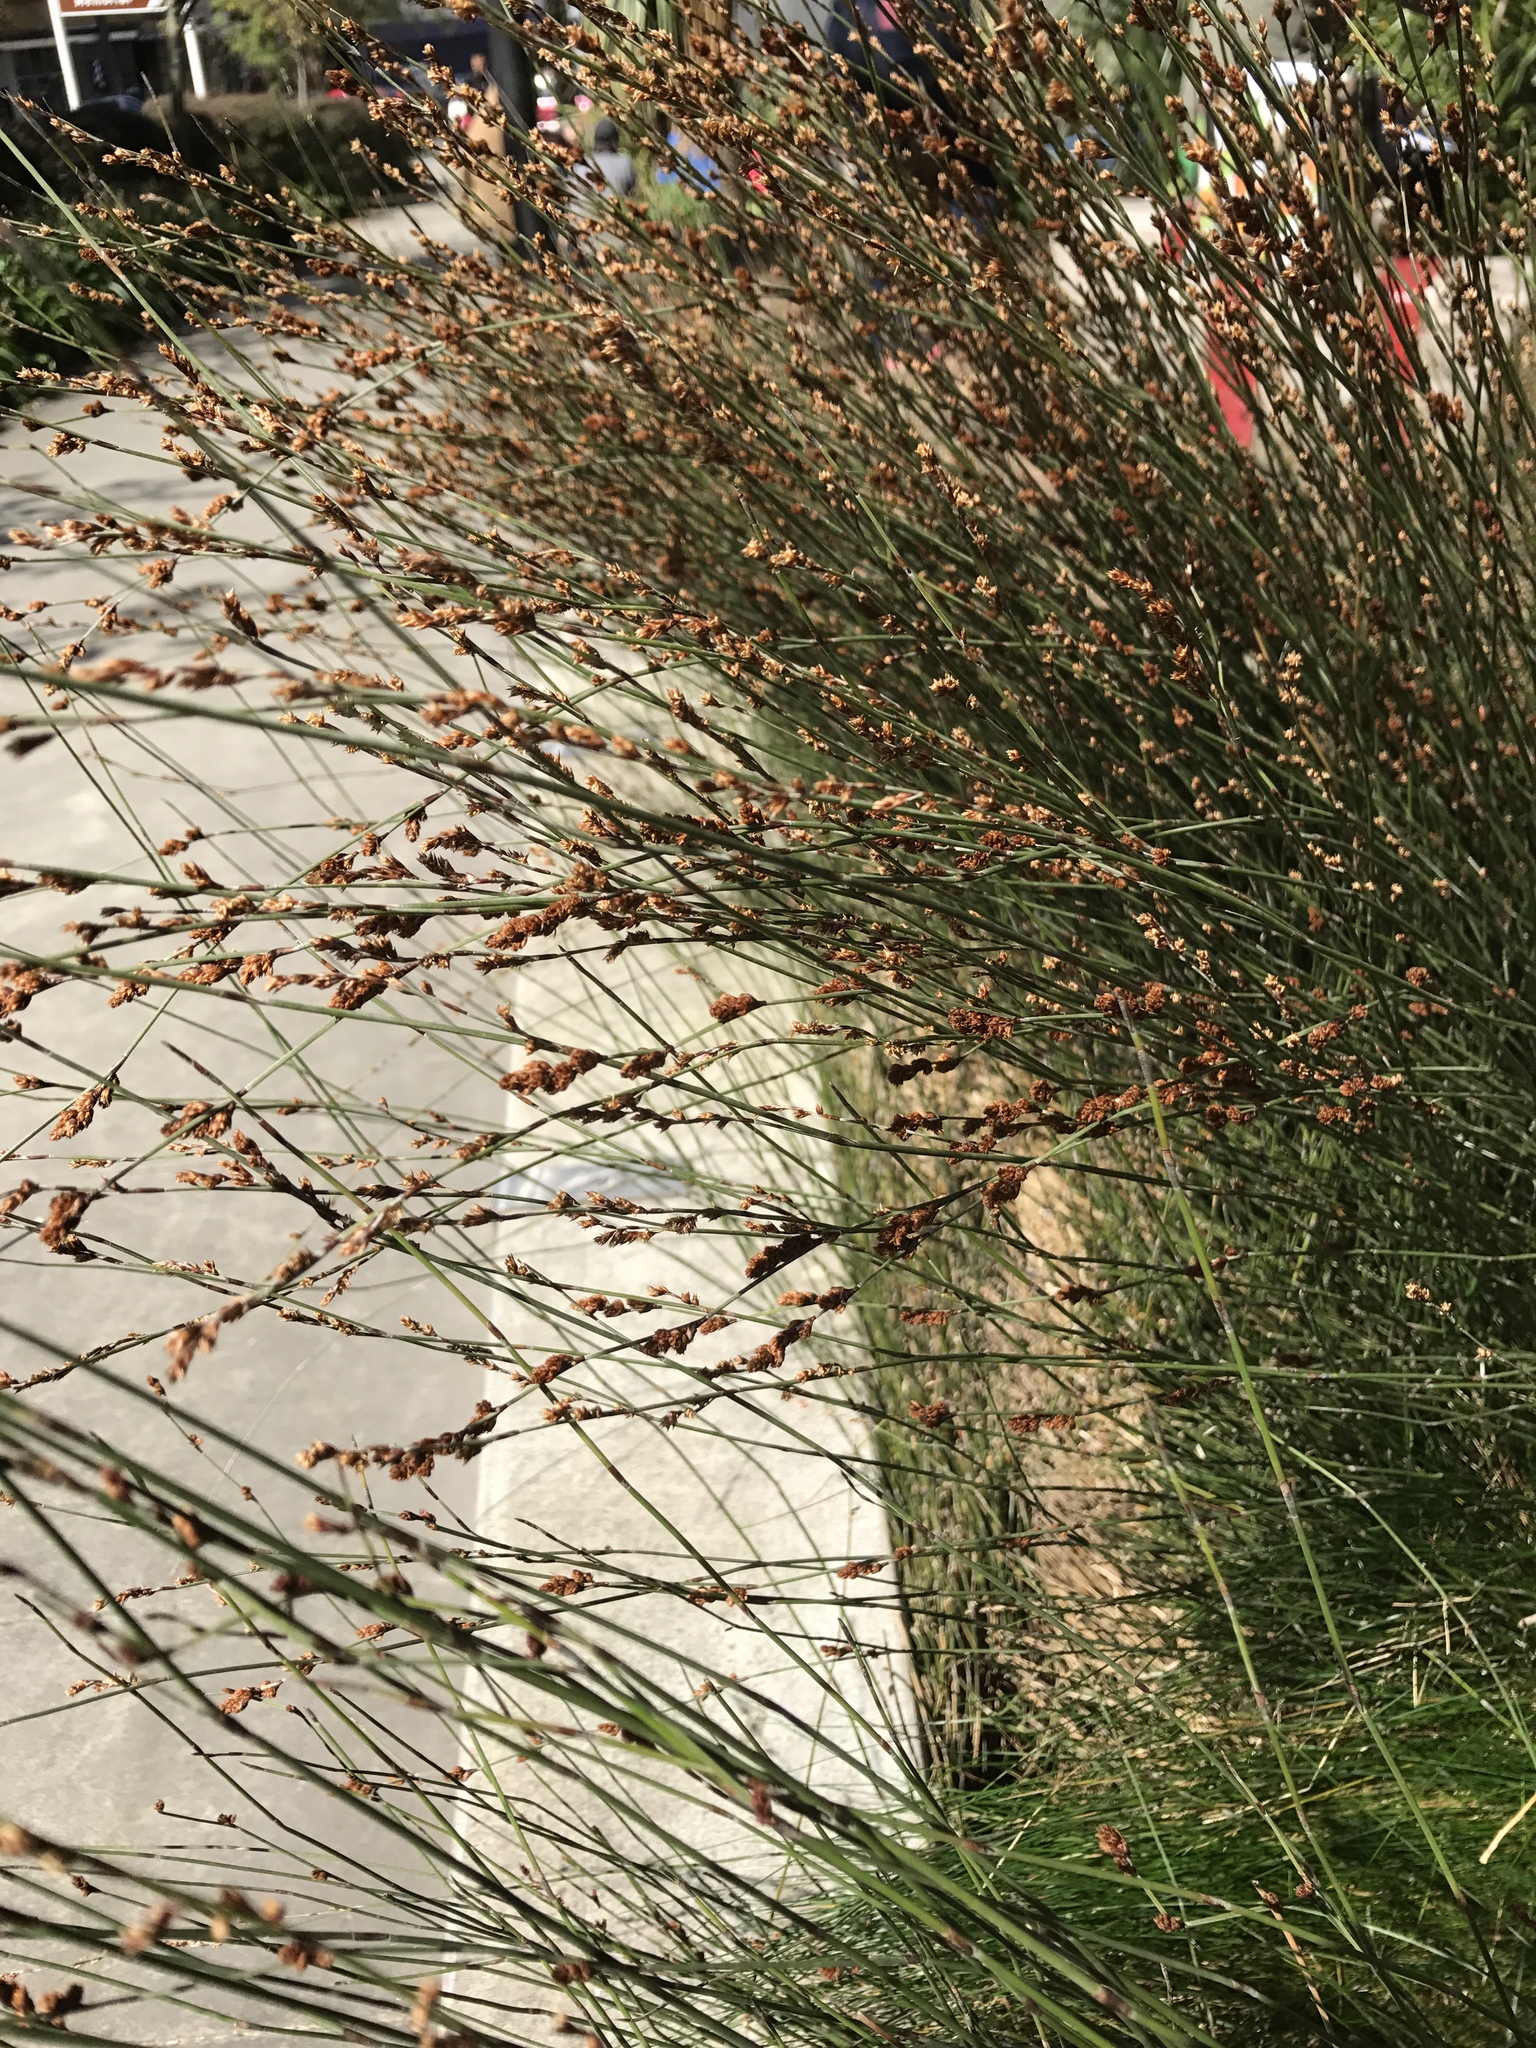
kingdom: Plantae
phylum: Tracheophyta
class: Liliopsida
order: Poales
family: Restionaceae
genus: Apodasmia
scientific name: Apodasmia similis
